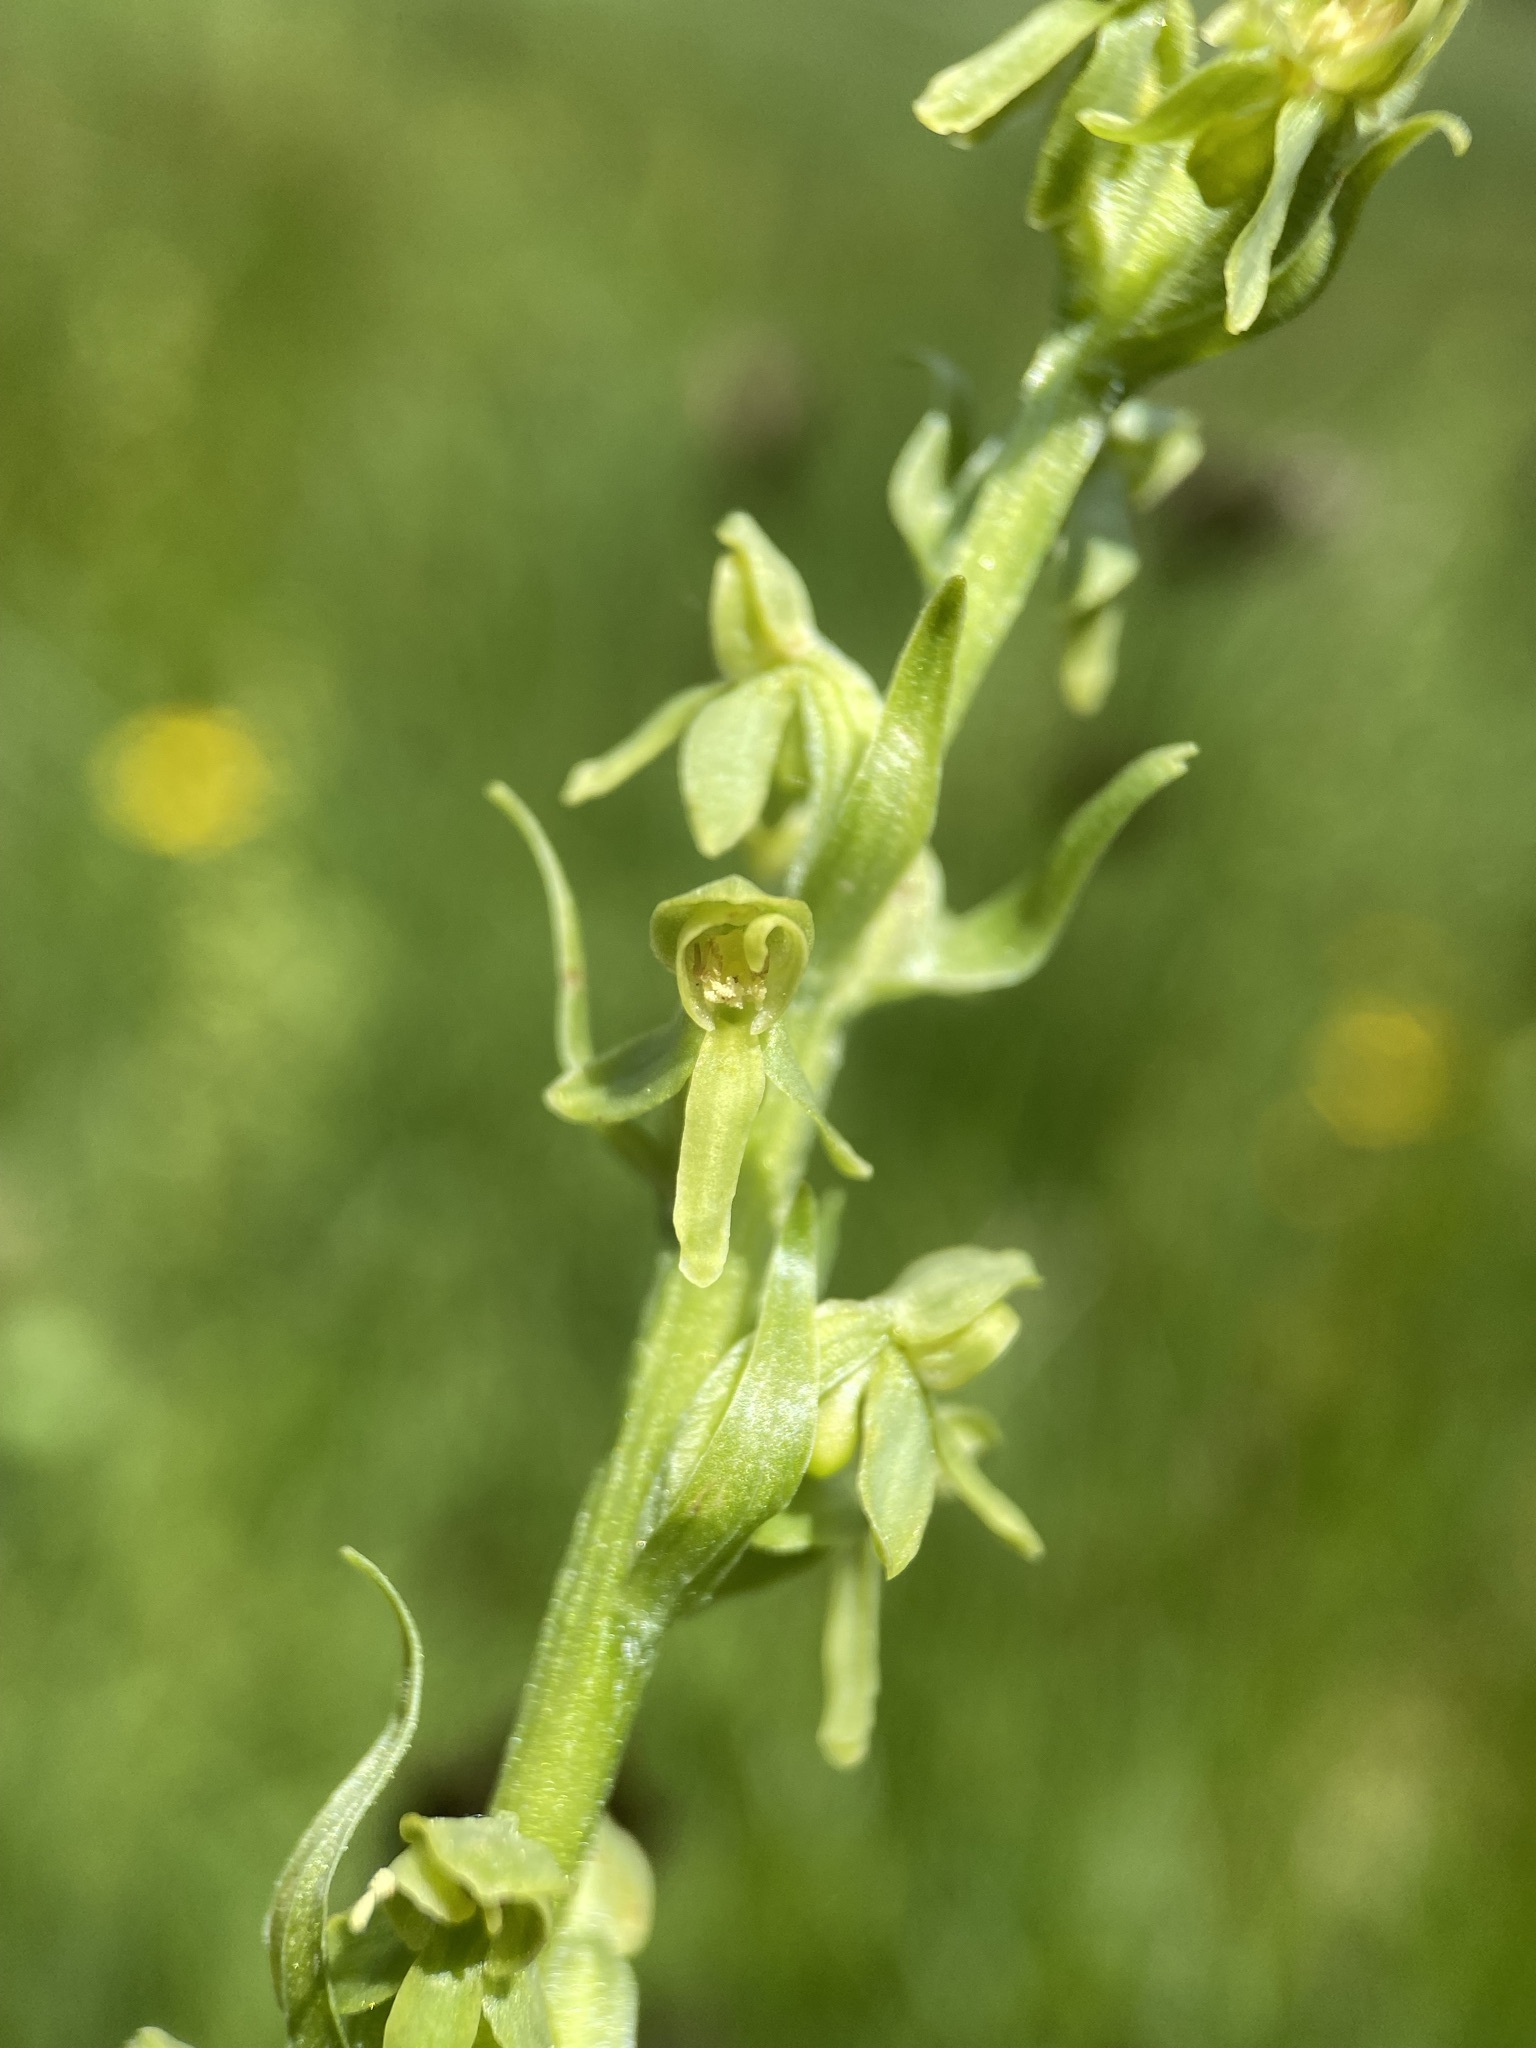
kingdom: Plantae
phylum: Tracheophyta
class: Liliopsida
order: Asparagales
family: Orchidaceae
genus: Platanthera
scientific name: Platanthera stricta
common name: Slender bog orchid
